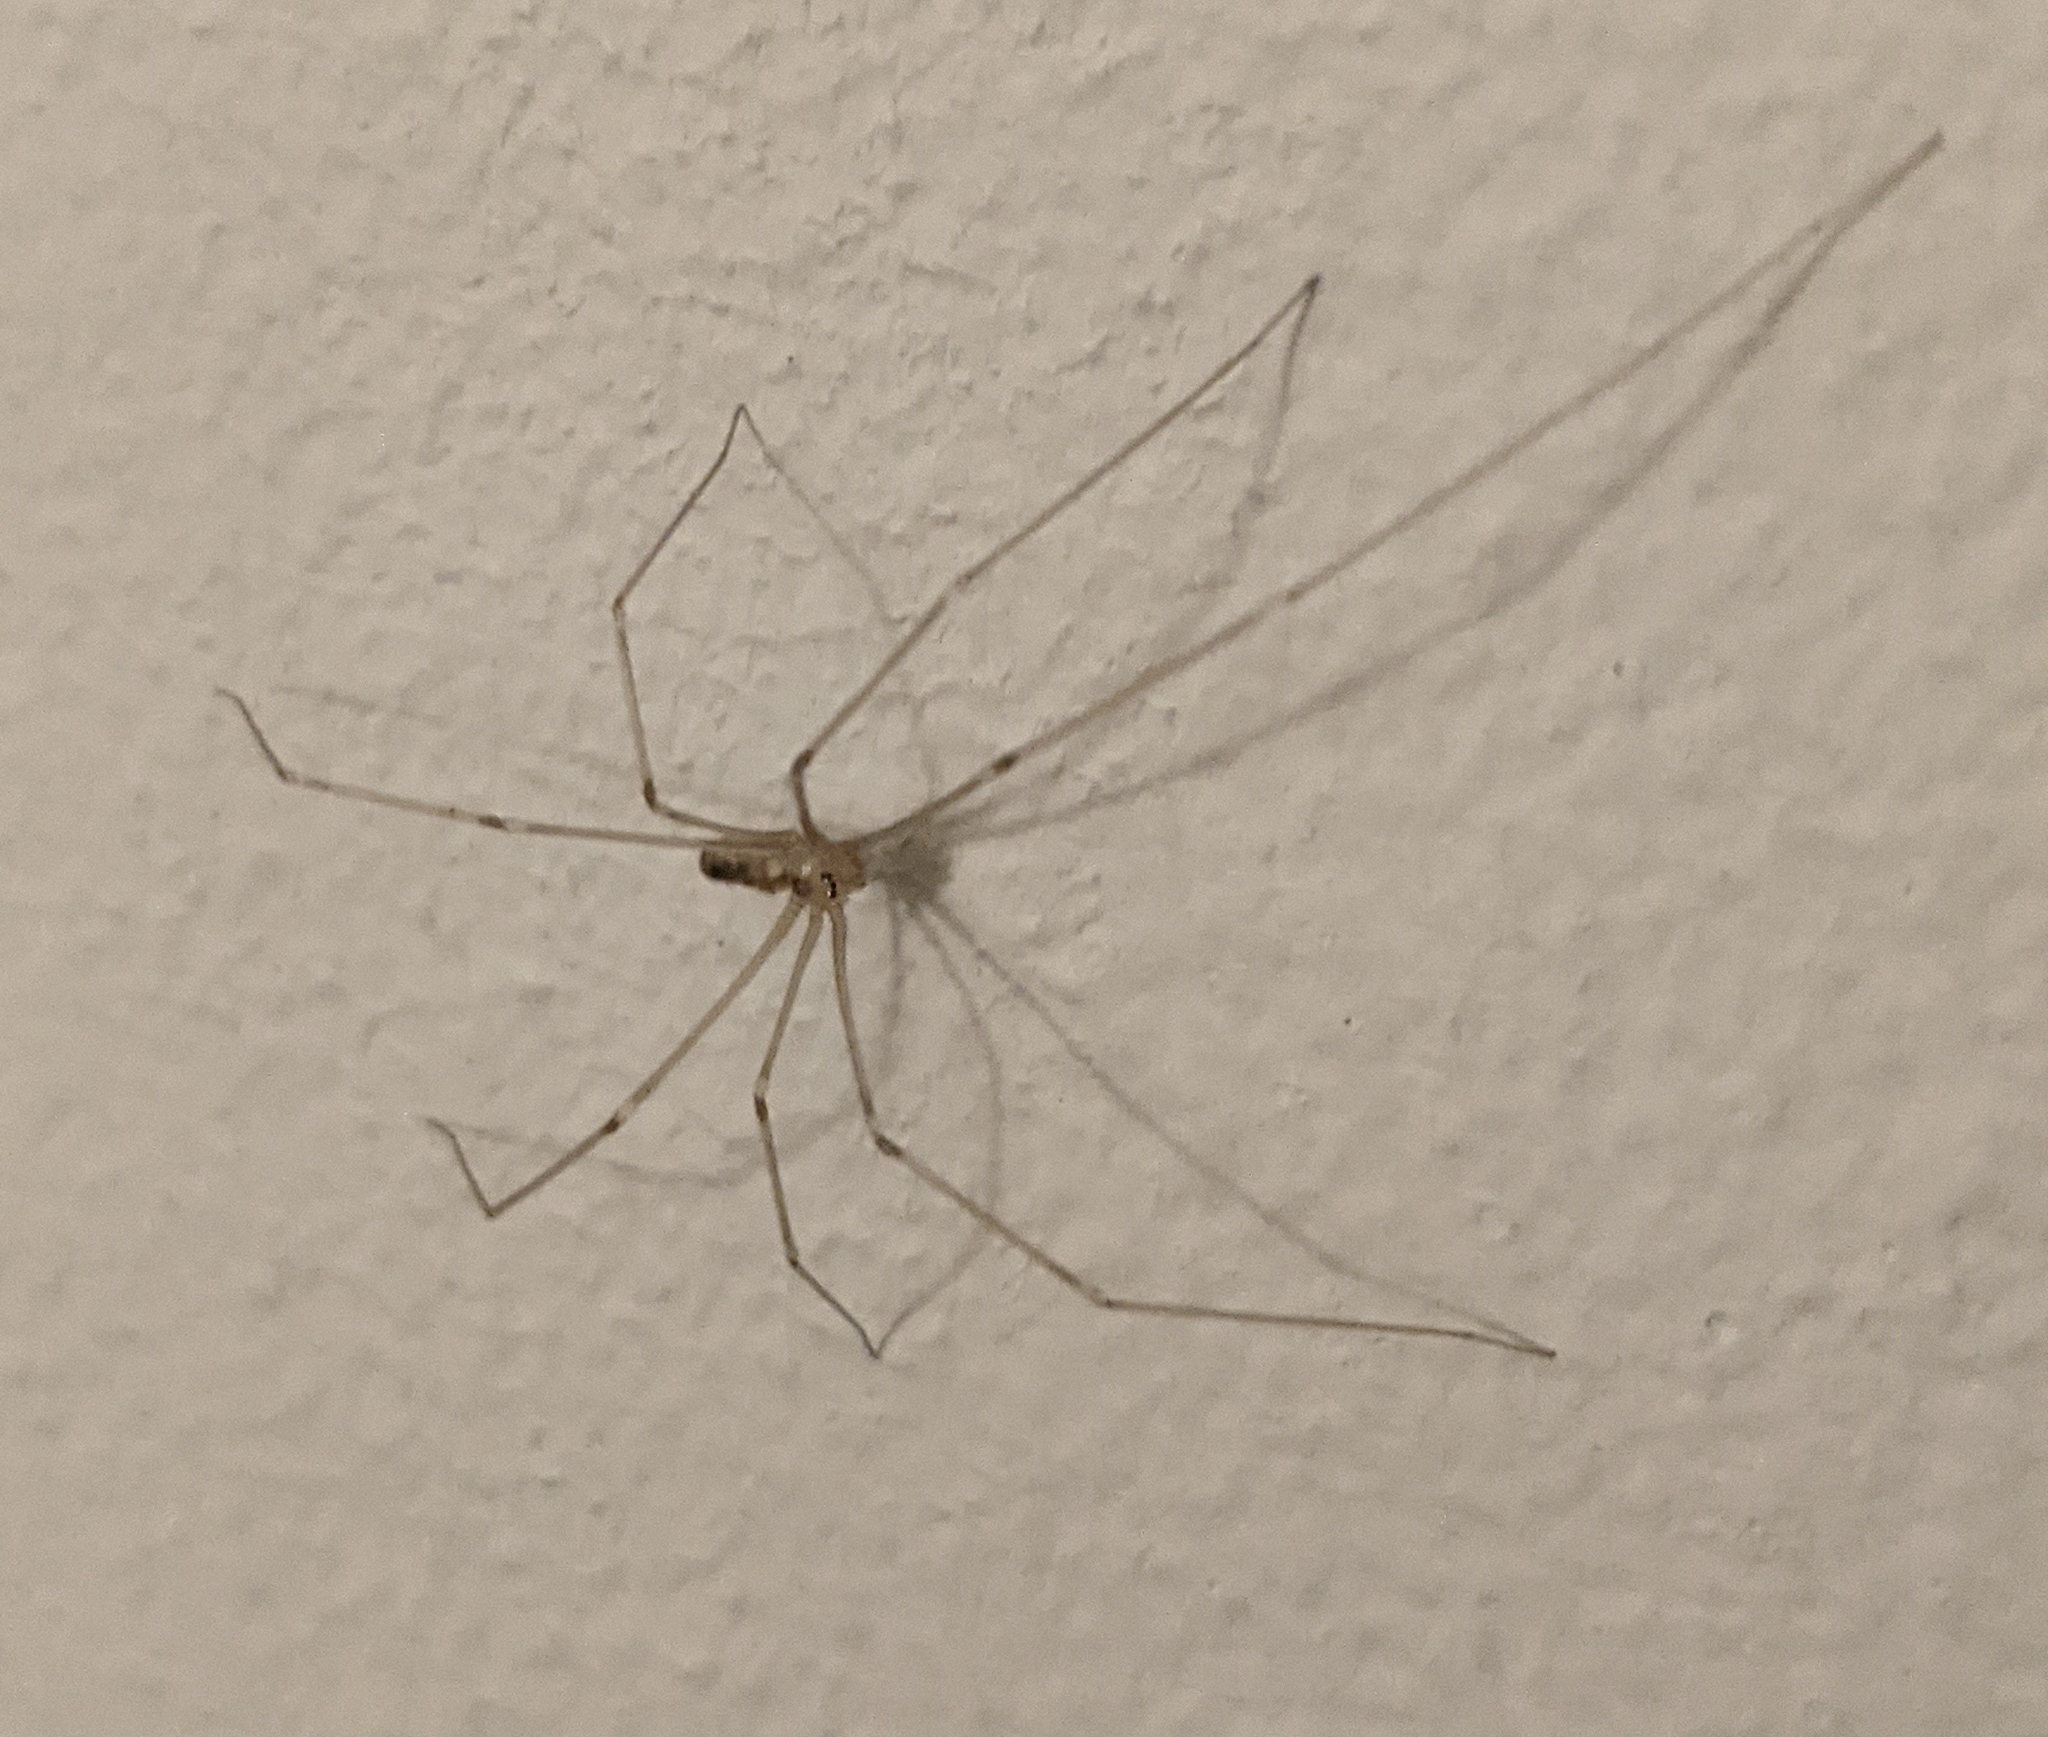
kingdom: Animalia
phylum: Arthropoda
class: Arachnida
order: Araneae
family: Pholcidae
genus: Pholcus
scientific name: Pholcus phalangioides
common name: Longbodied cellar spider
